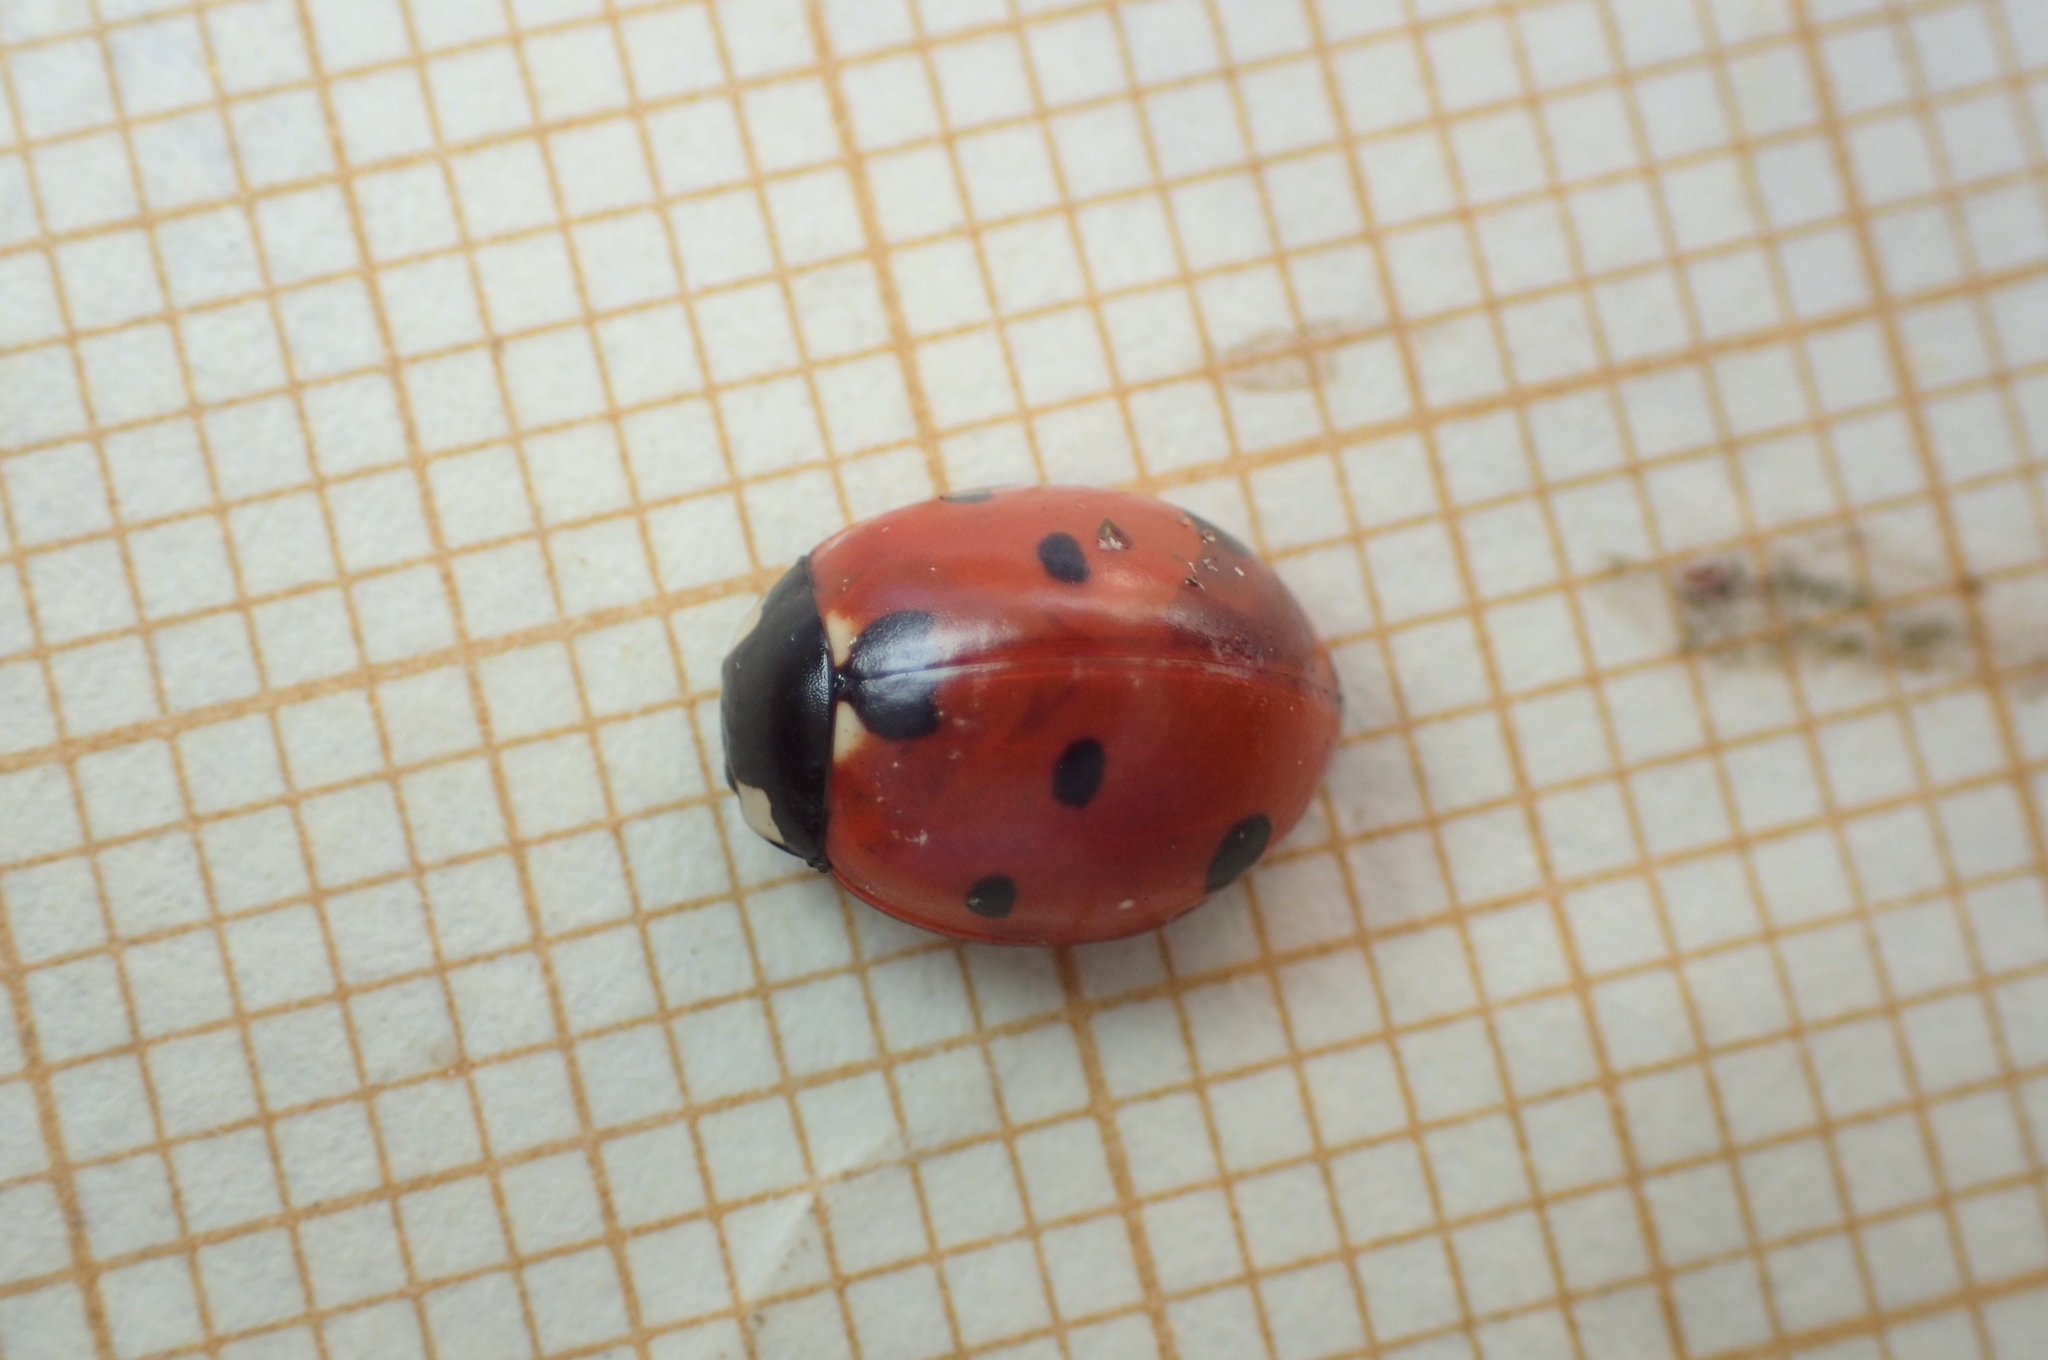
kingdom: Animalia
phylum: Arthropoda
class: Insecta
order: Coleoptera
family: Coccinellidae
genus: Coccinella
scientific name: Coccinella septempunctata
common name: Sevenspotted lady beetle
